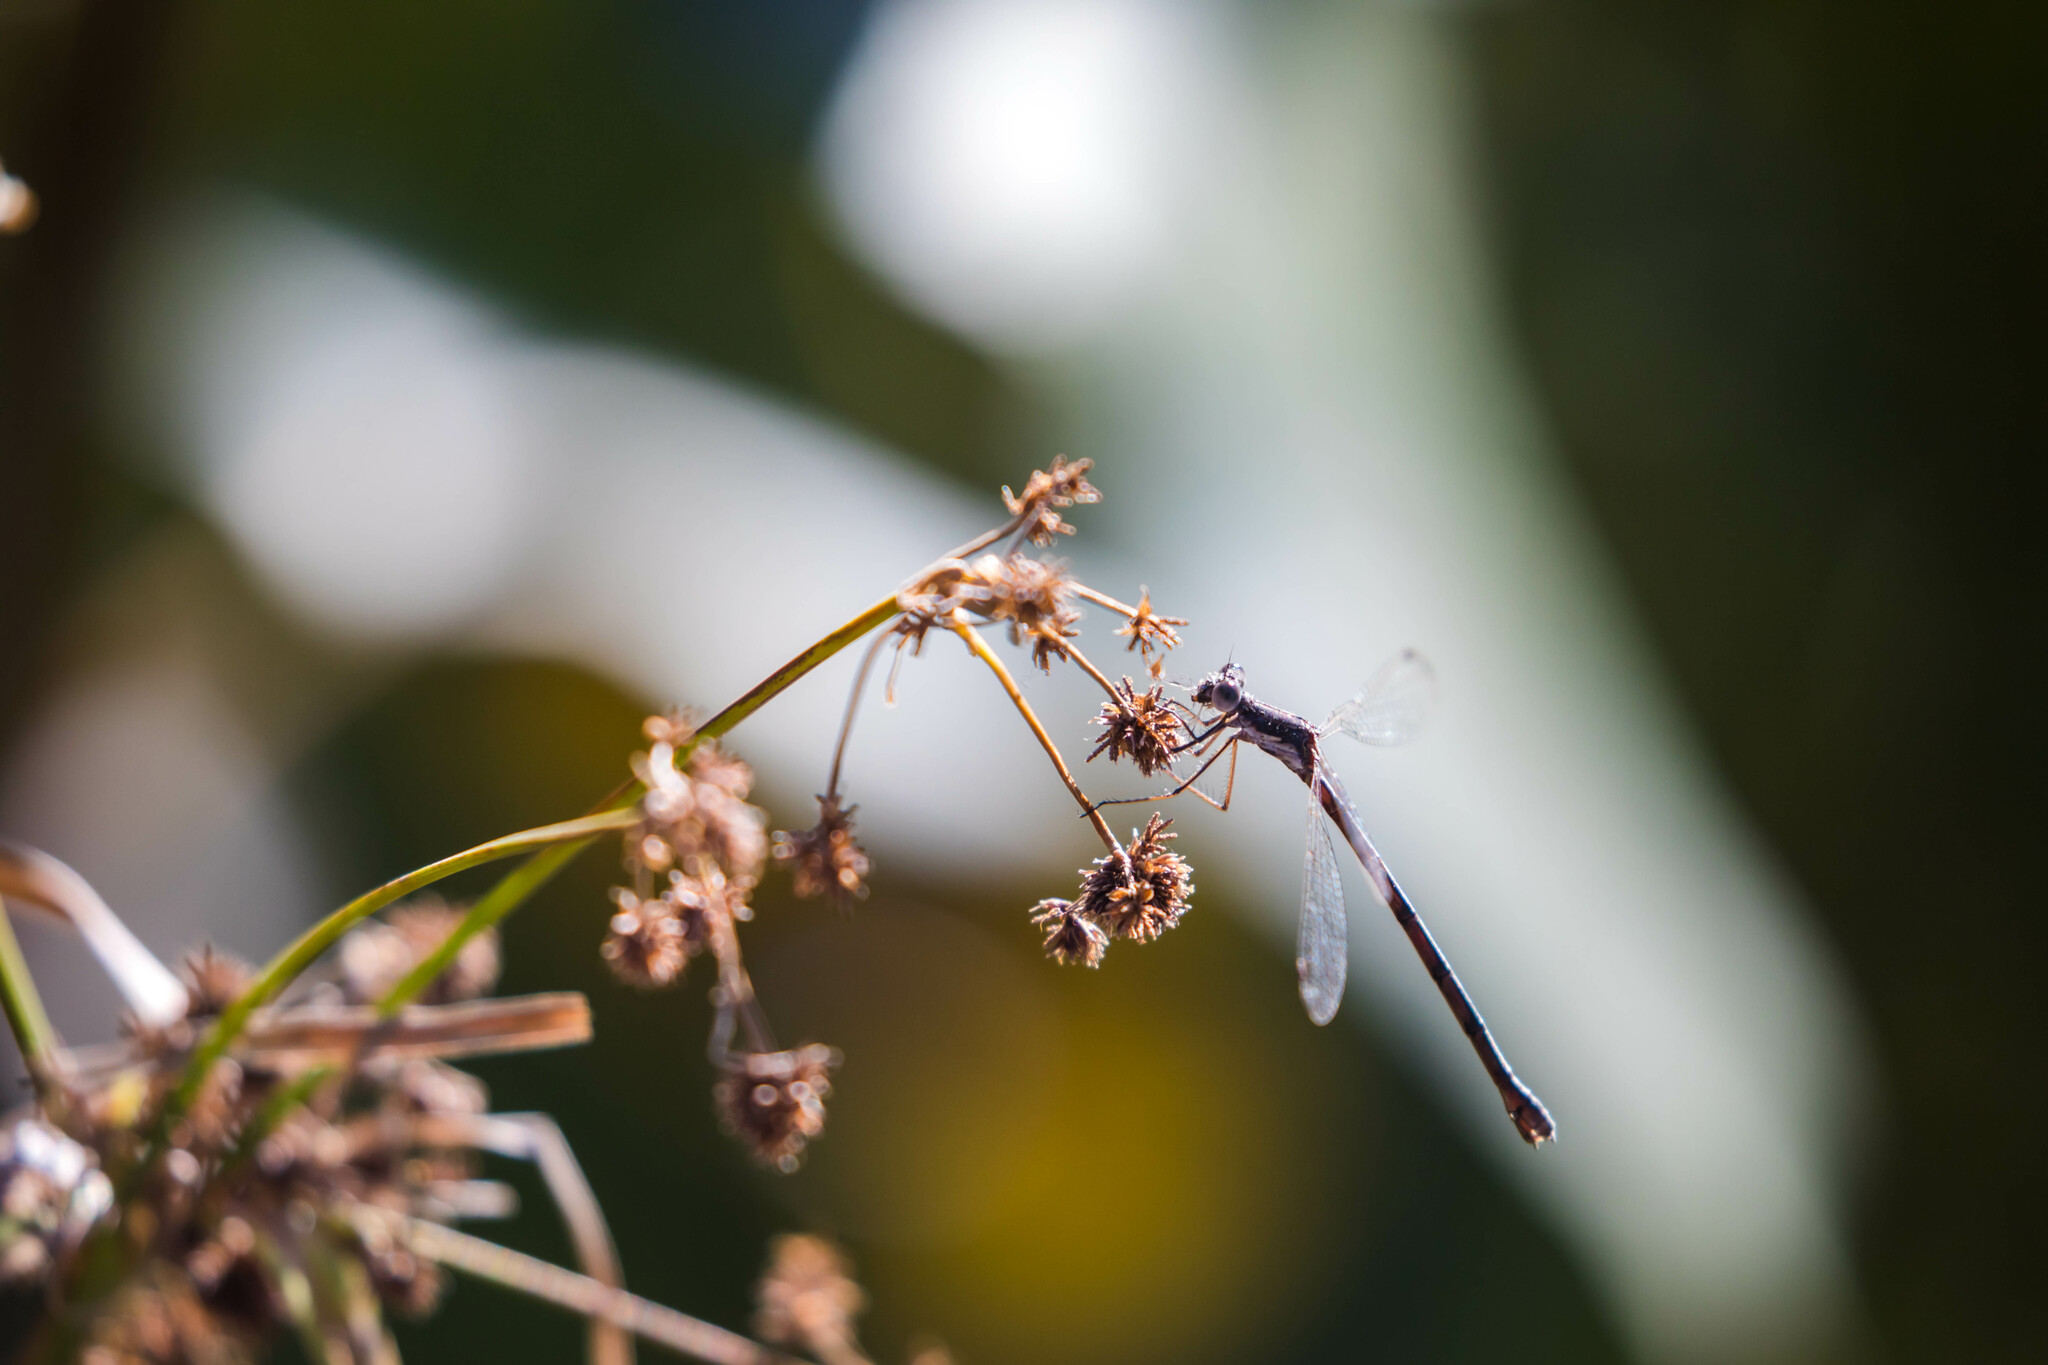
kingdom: Animalia
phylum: Arthropoda
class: Insecta
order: Odonata
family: Lestidae
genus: Lestes
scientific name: Lestes congener
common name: Spotted spreadwing
